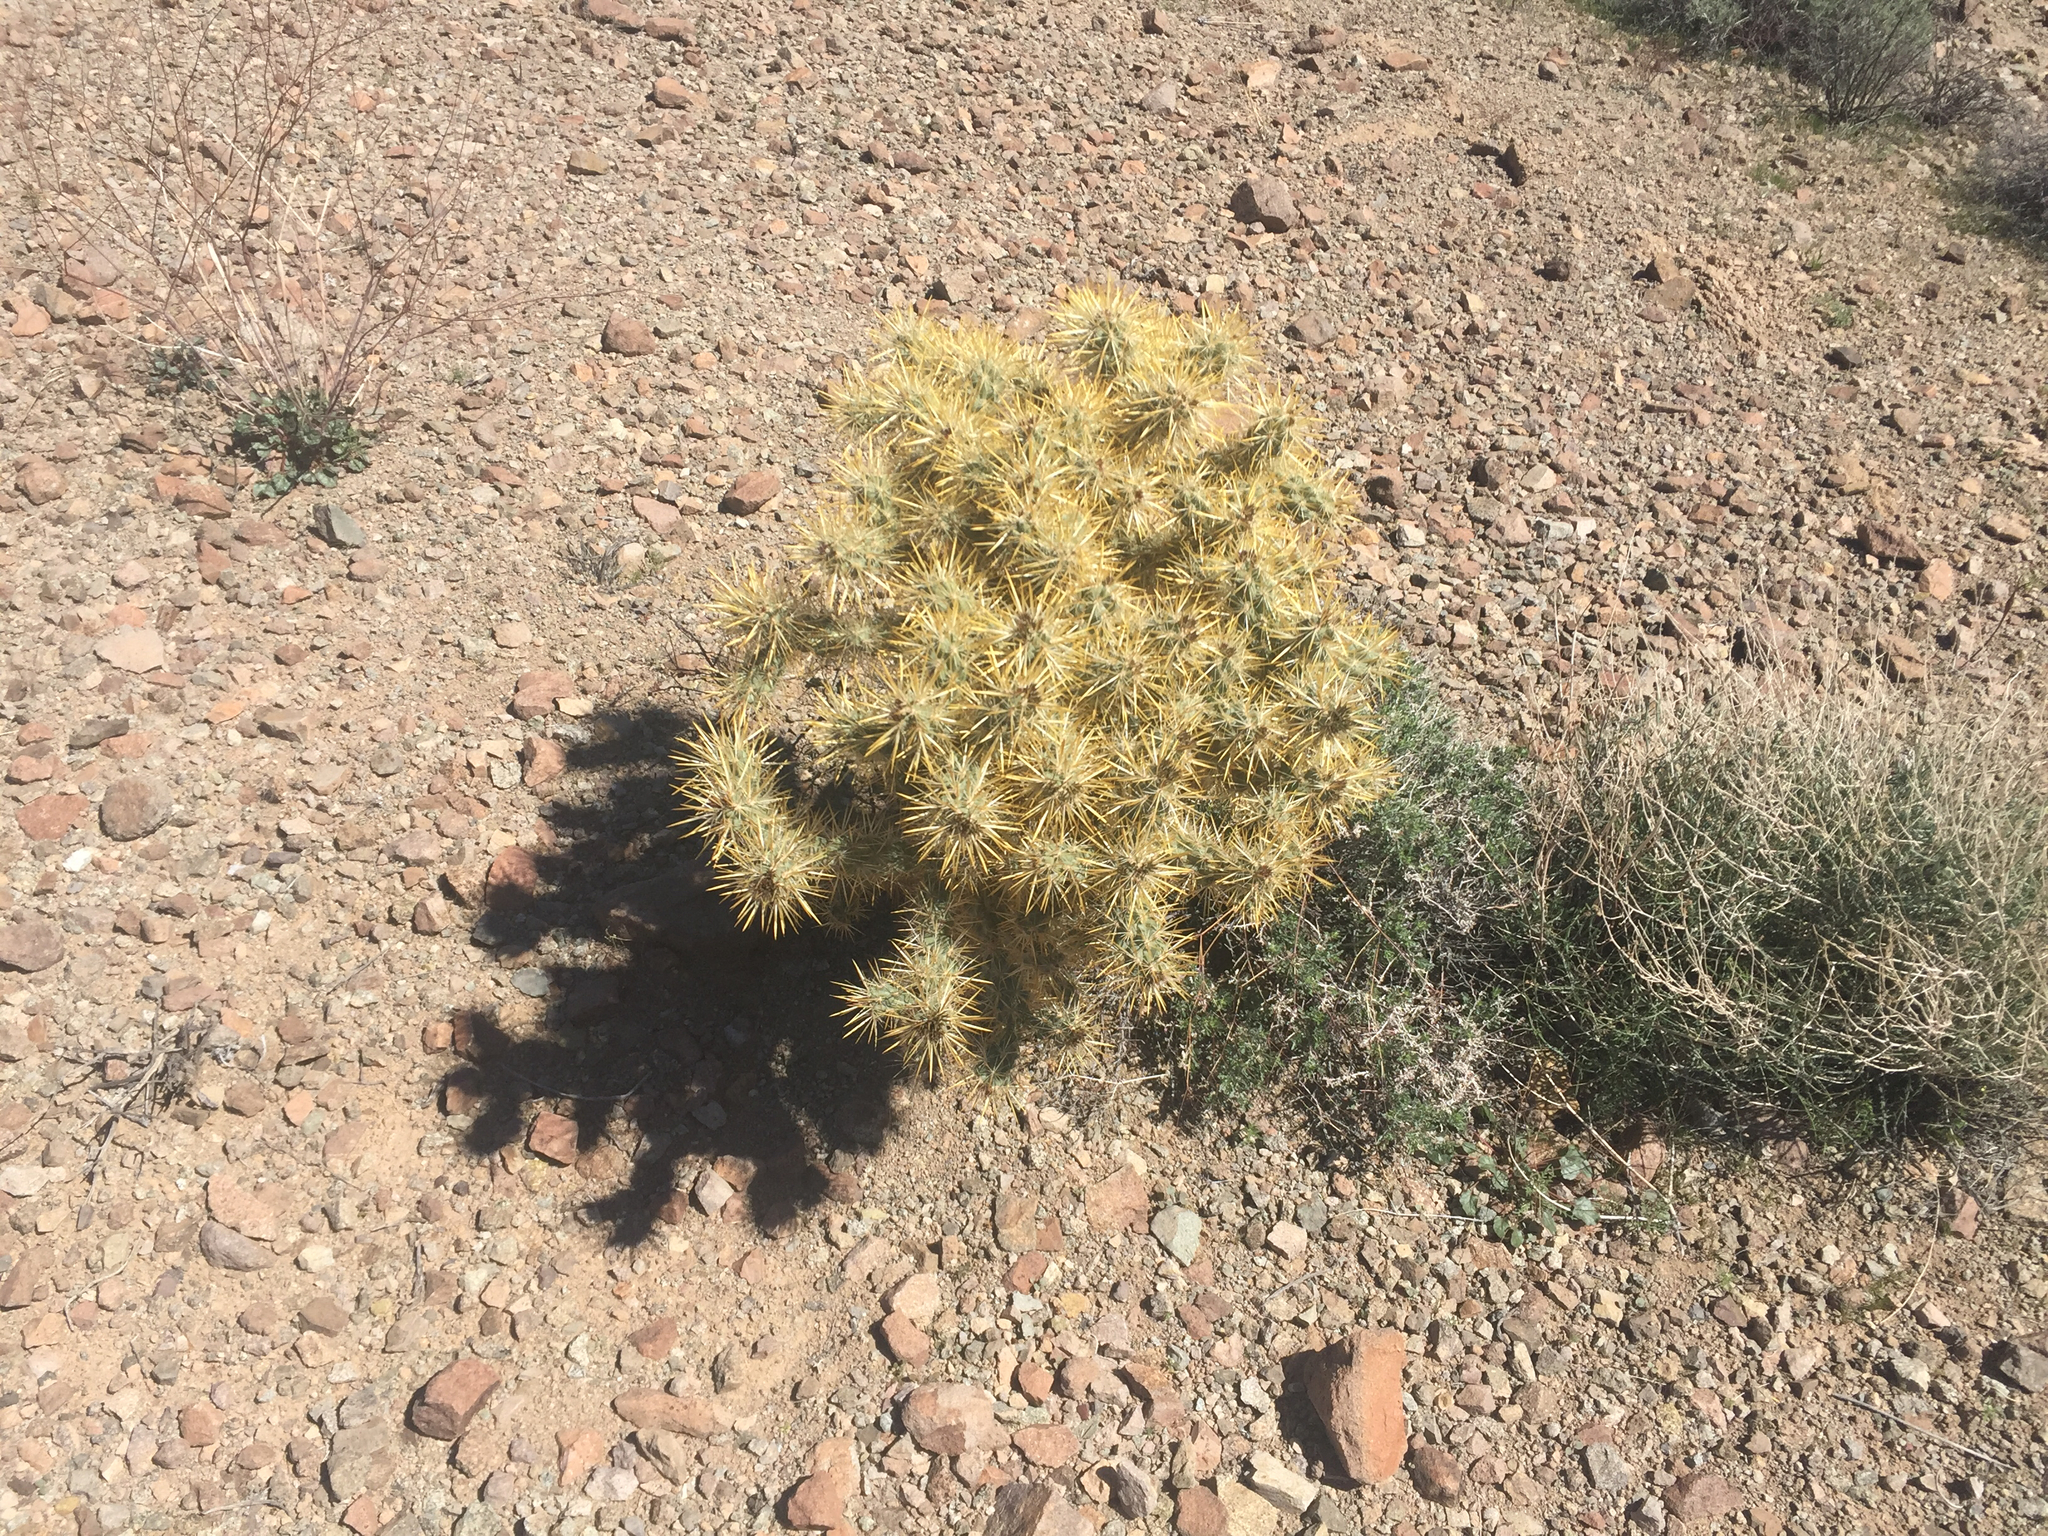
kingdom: Plantae
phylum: Tracheophyta
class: Magnoliopsida
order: Caryophyllales
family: Cactaceae
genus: Cylindropuntia
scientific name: Cylindropuntia echinocarpa
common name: Ground cholla
